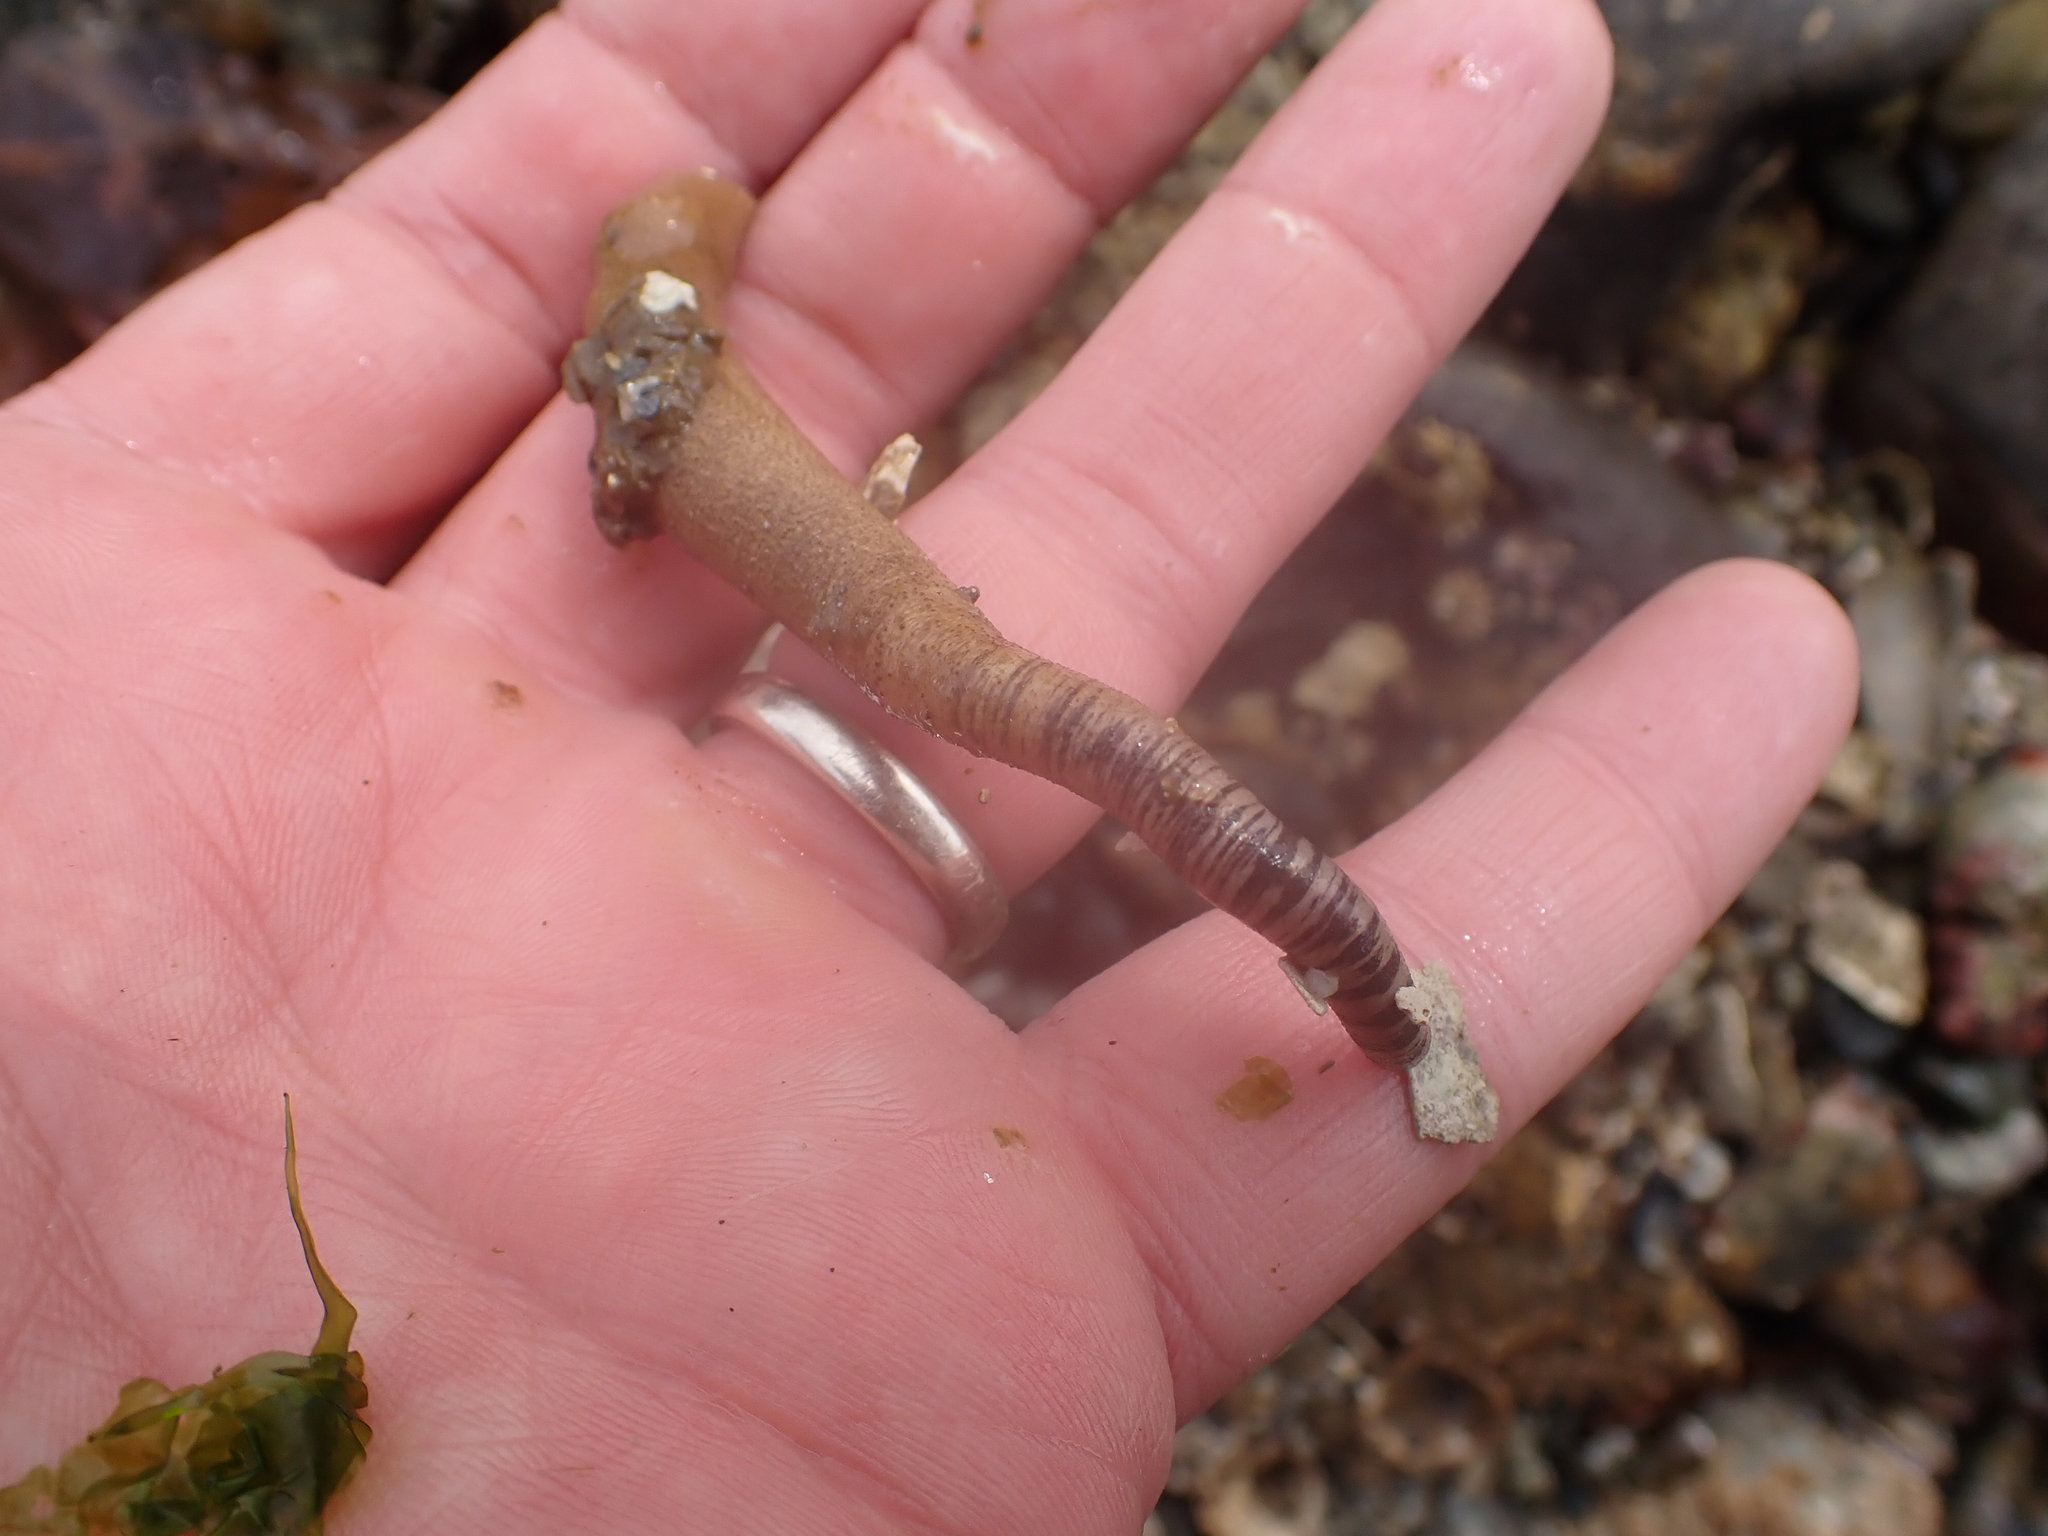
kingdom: Animalia
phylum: Sipuncula
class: Phascolosomatidea
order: Phascolosomatiformes
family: Phascolosomatidae
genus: Phascolosoma
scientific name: Phascolosoma agassizii
